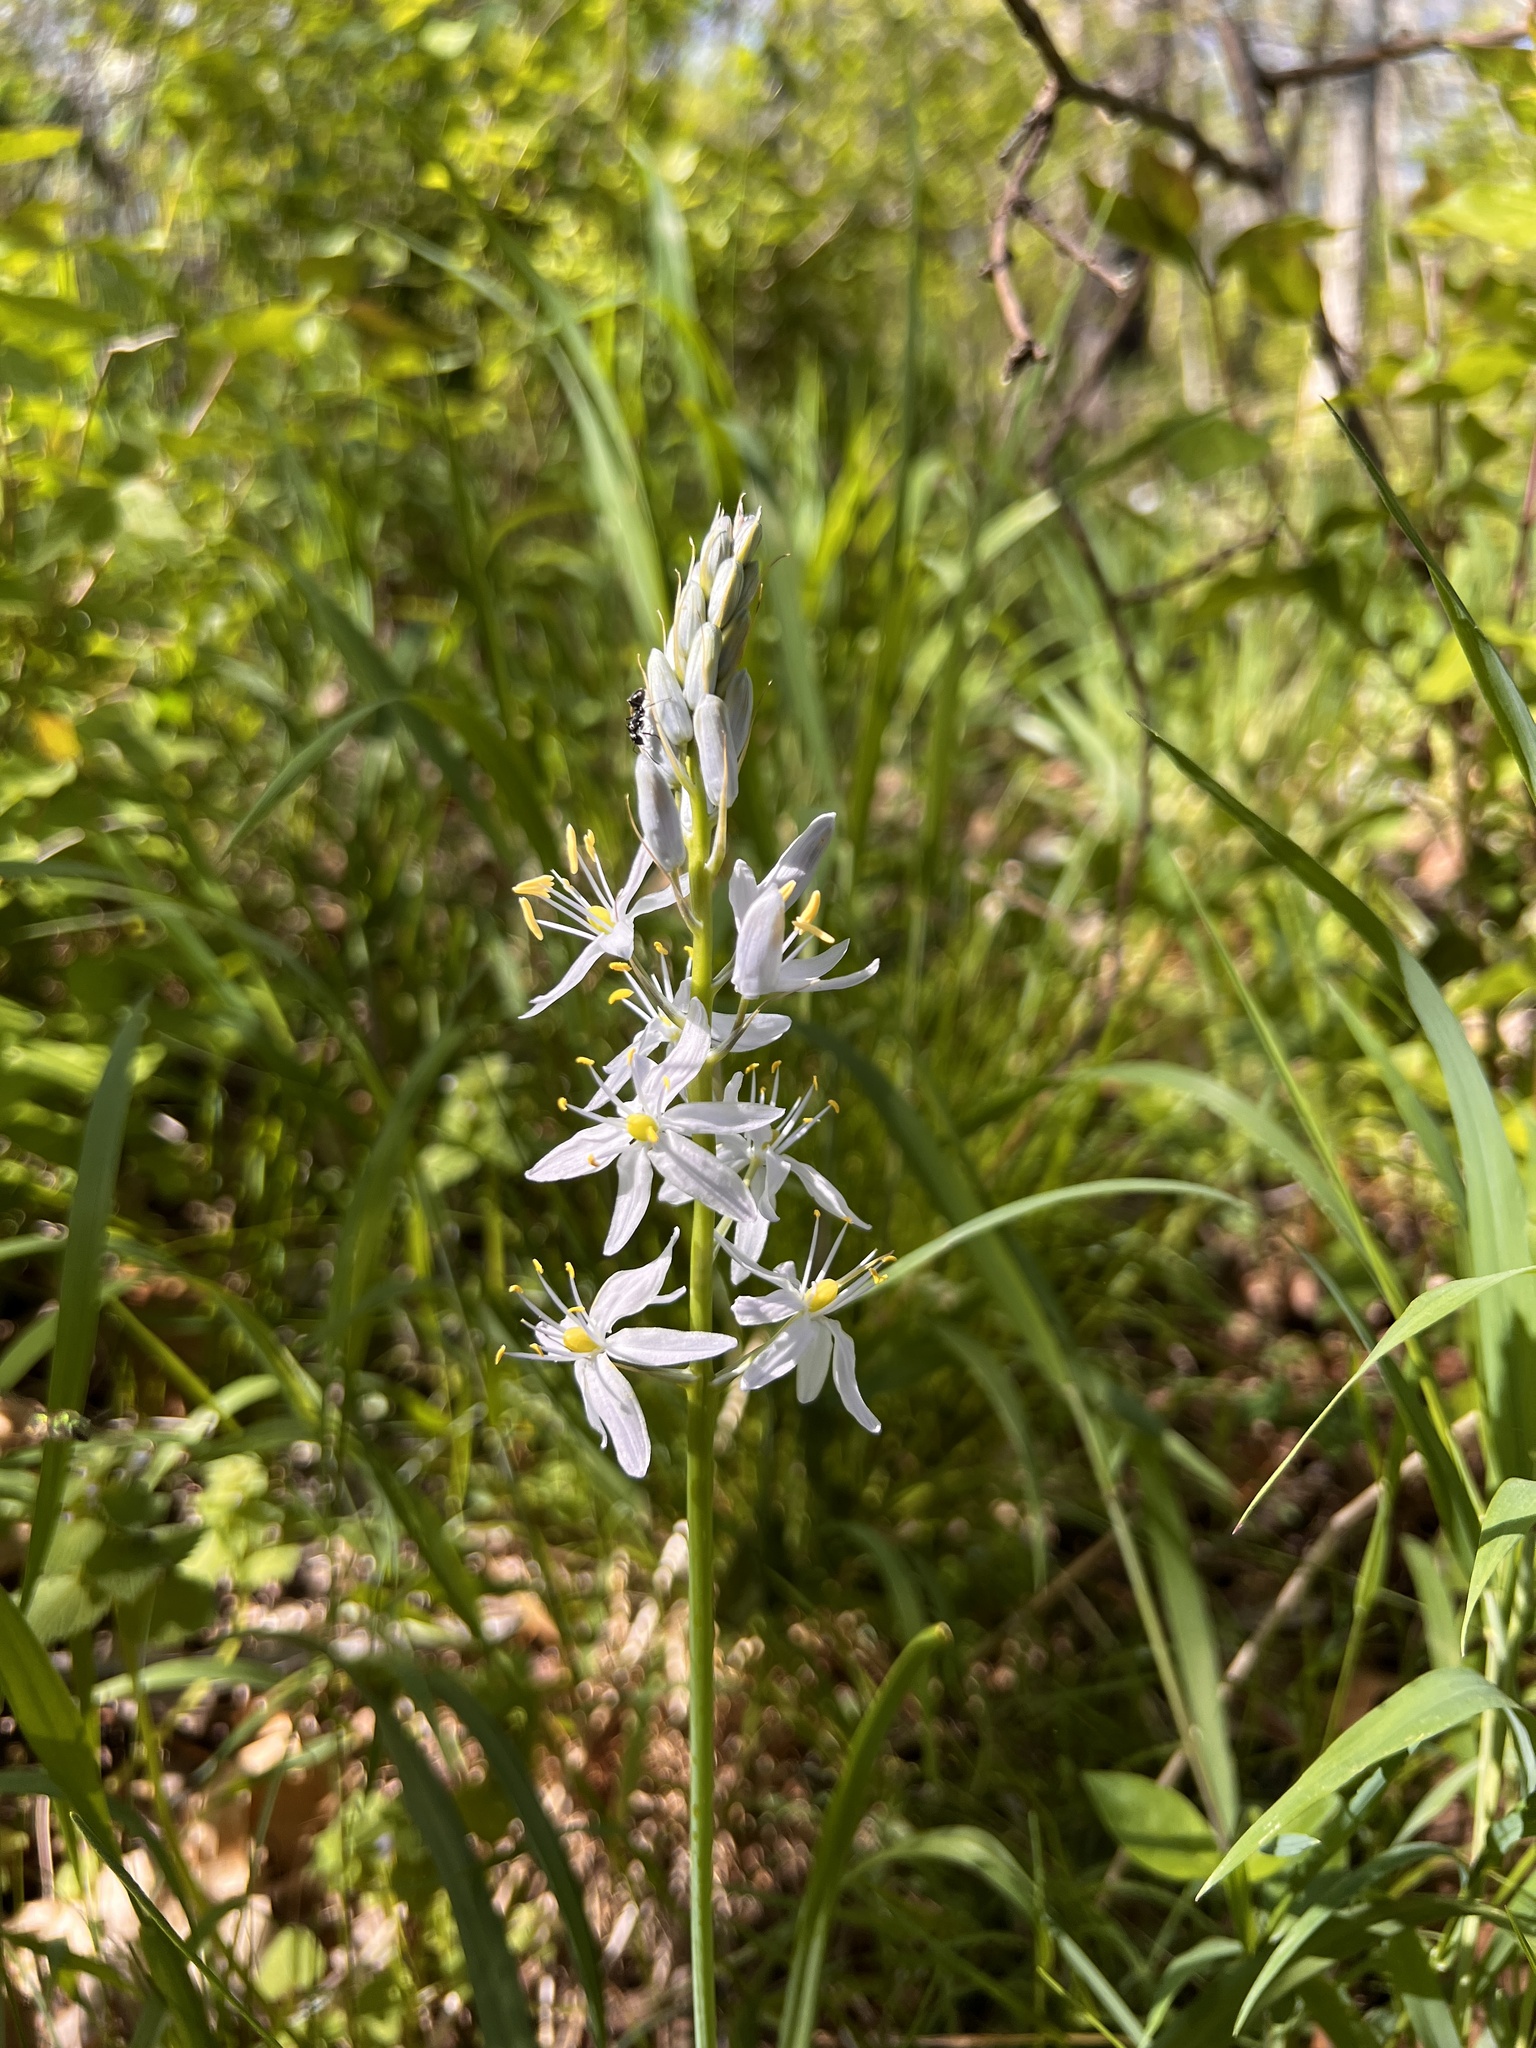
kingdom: Plantae
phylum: Tracheophyta
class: Liliopsida
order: Asparagales
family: Asparagaceae
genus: Camassia
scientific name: Camassia scilloides
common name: Wild hyacinth
